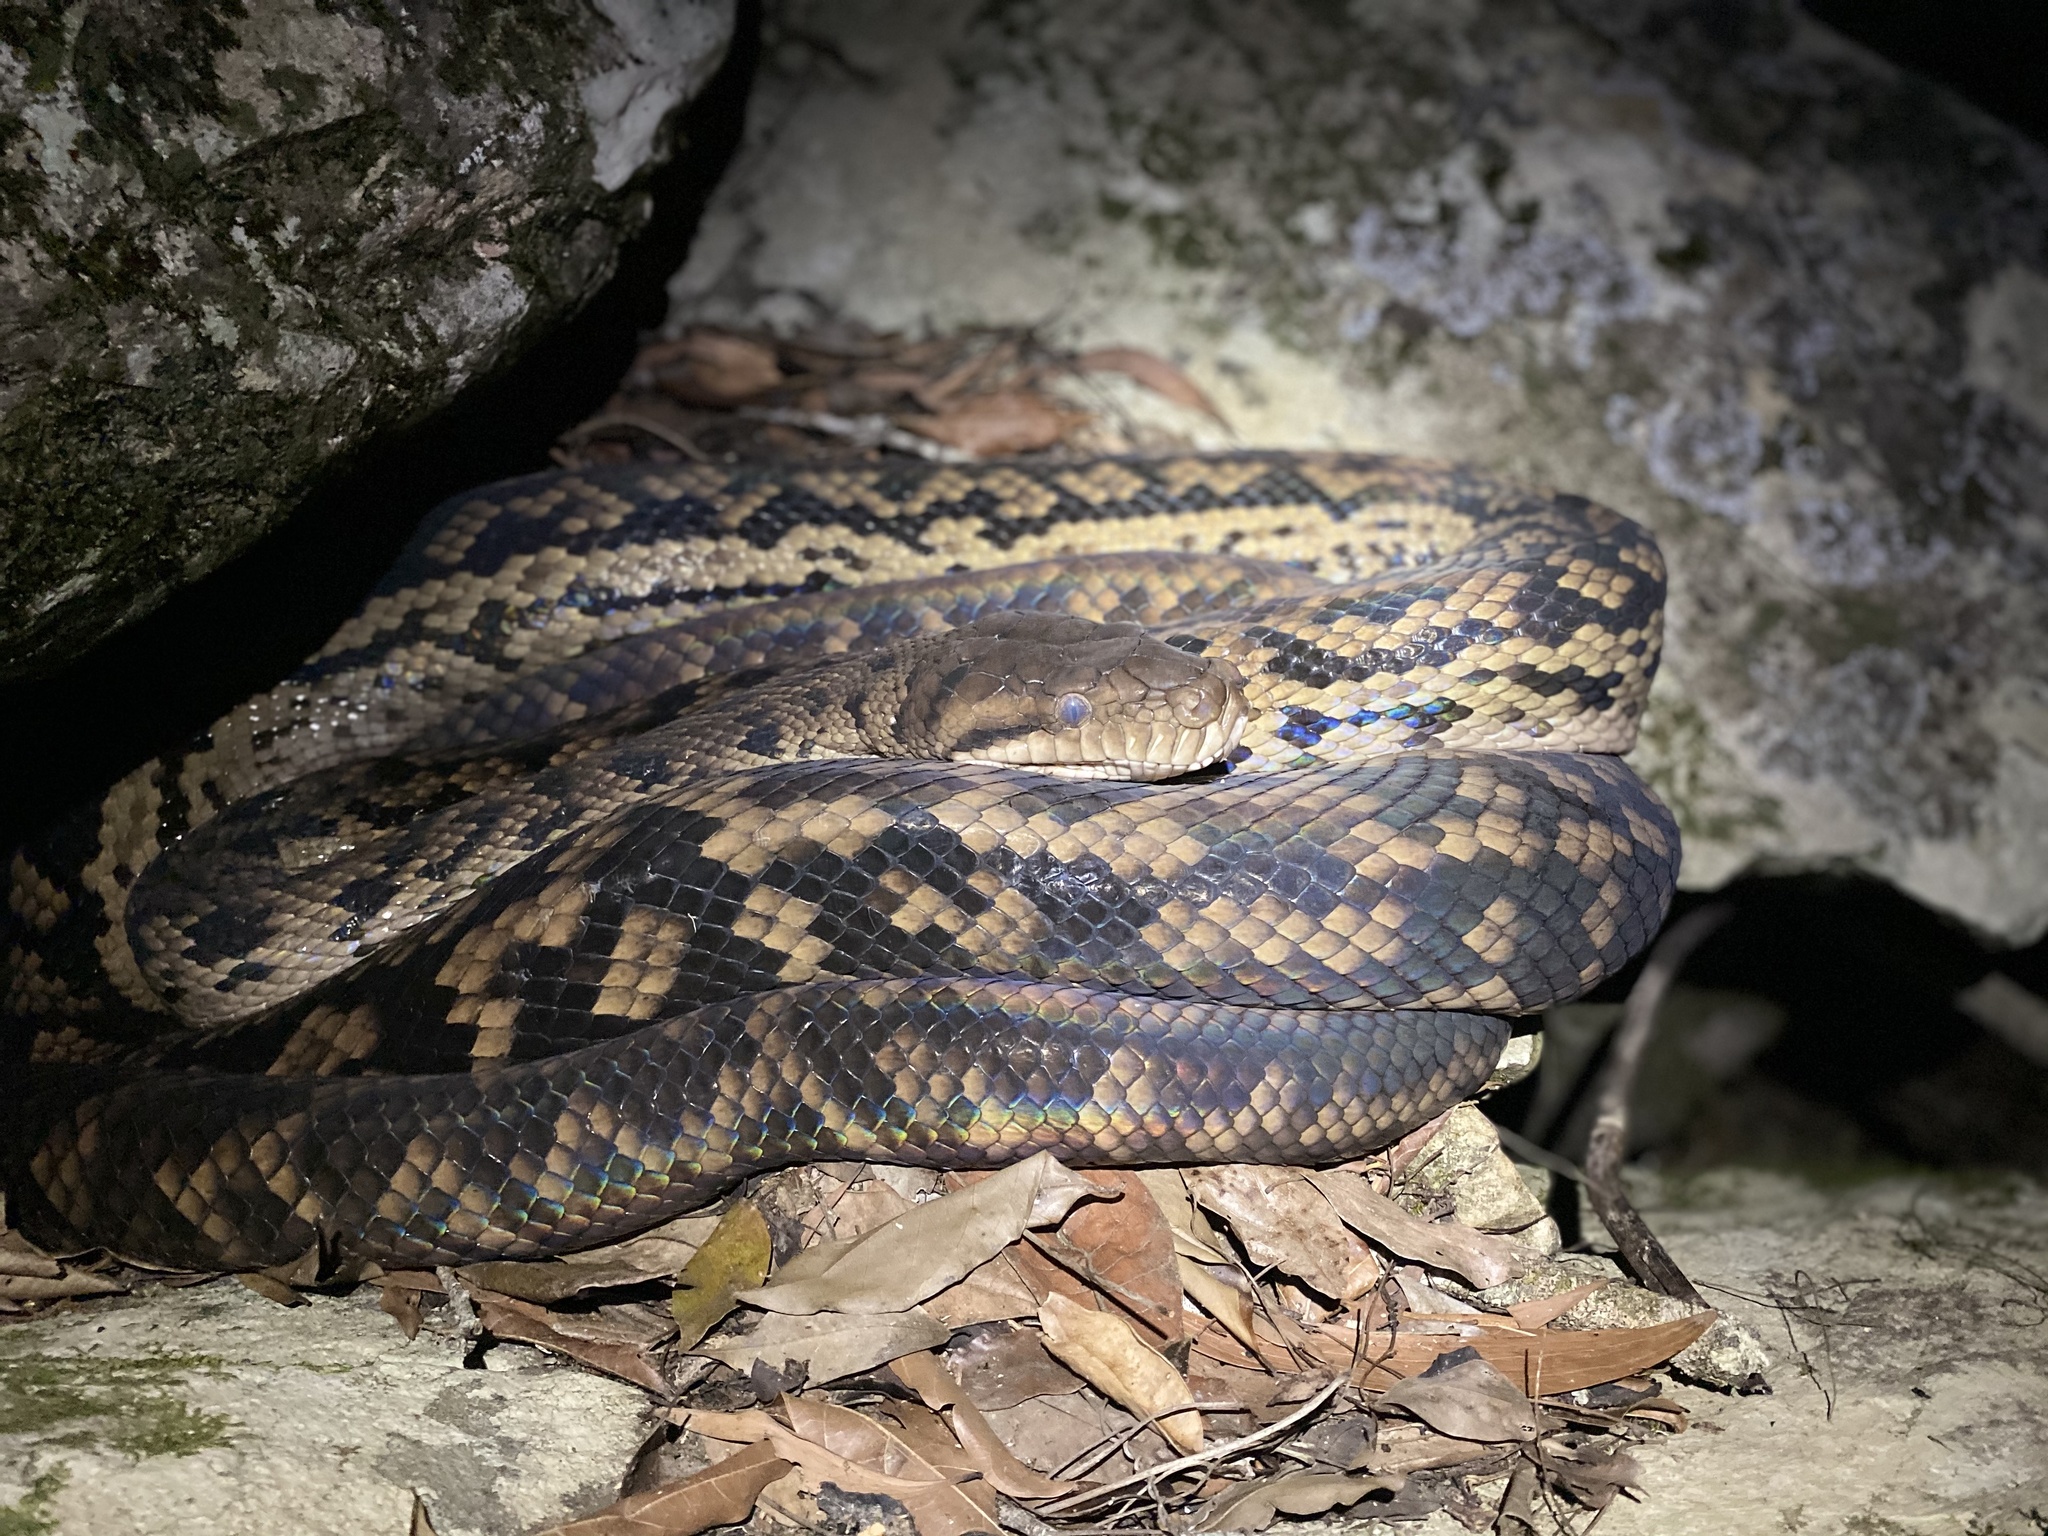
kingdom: Animalia
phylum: Chordata
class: Squamata
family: Pythonidae
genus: Simalia
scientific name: Simalia kinghorni
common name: Scrub python
